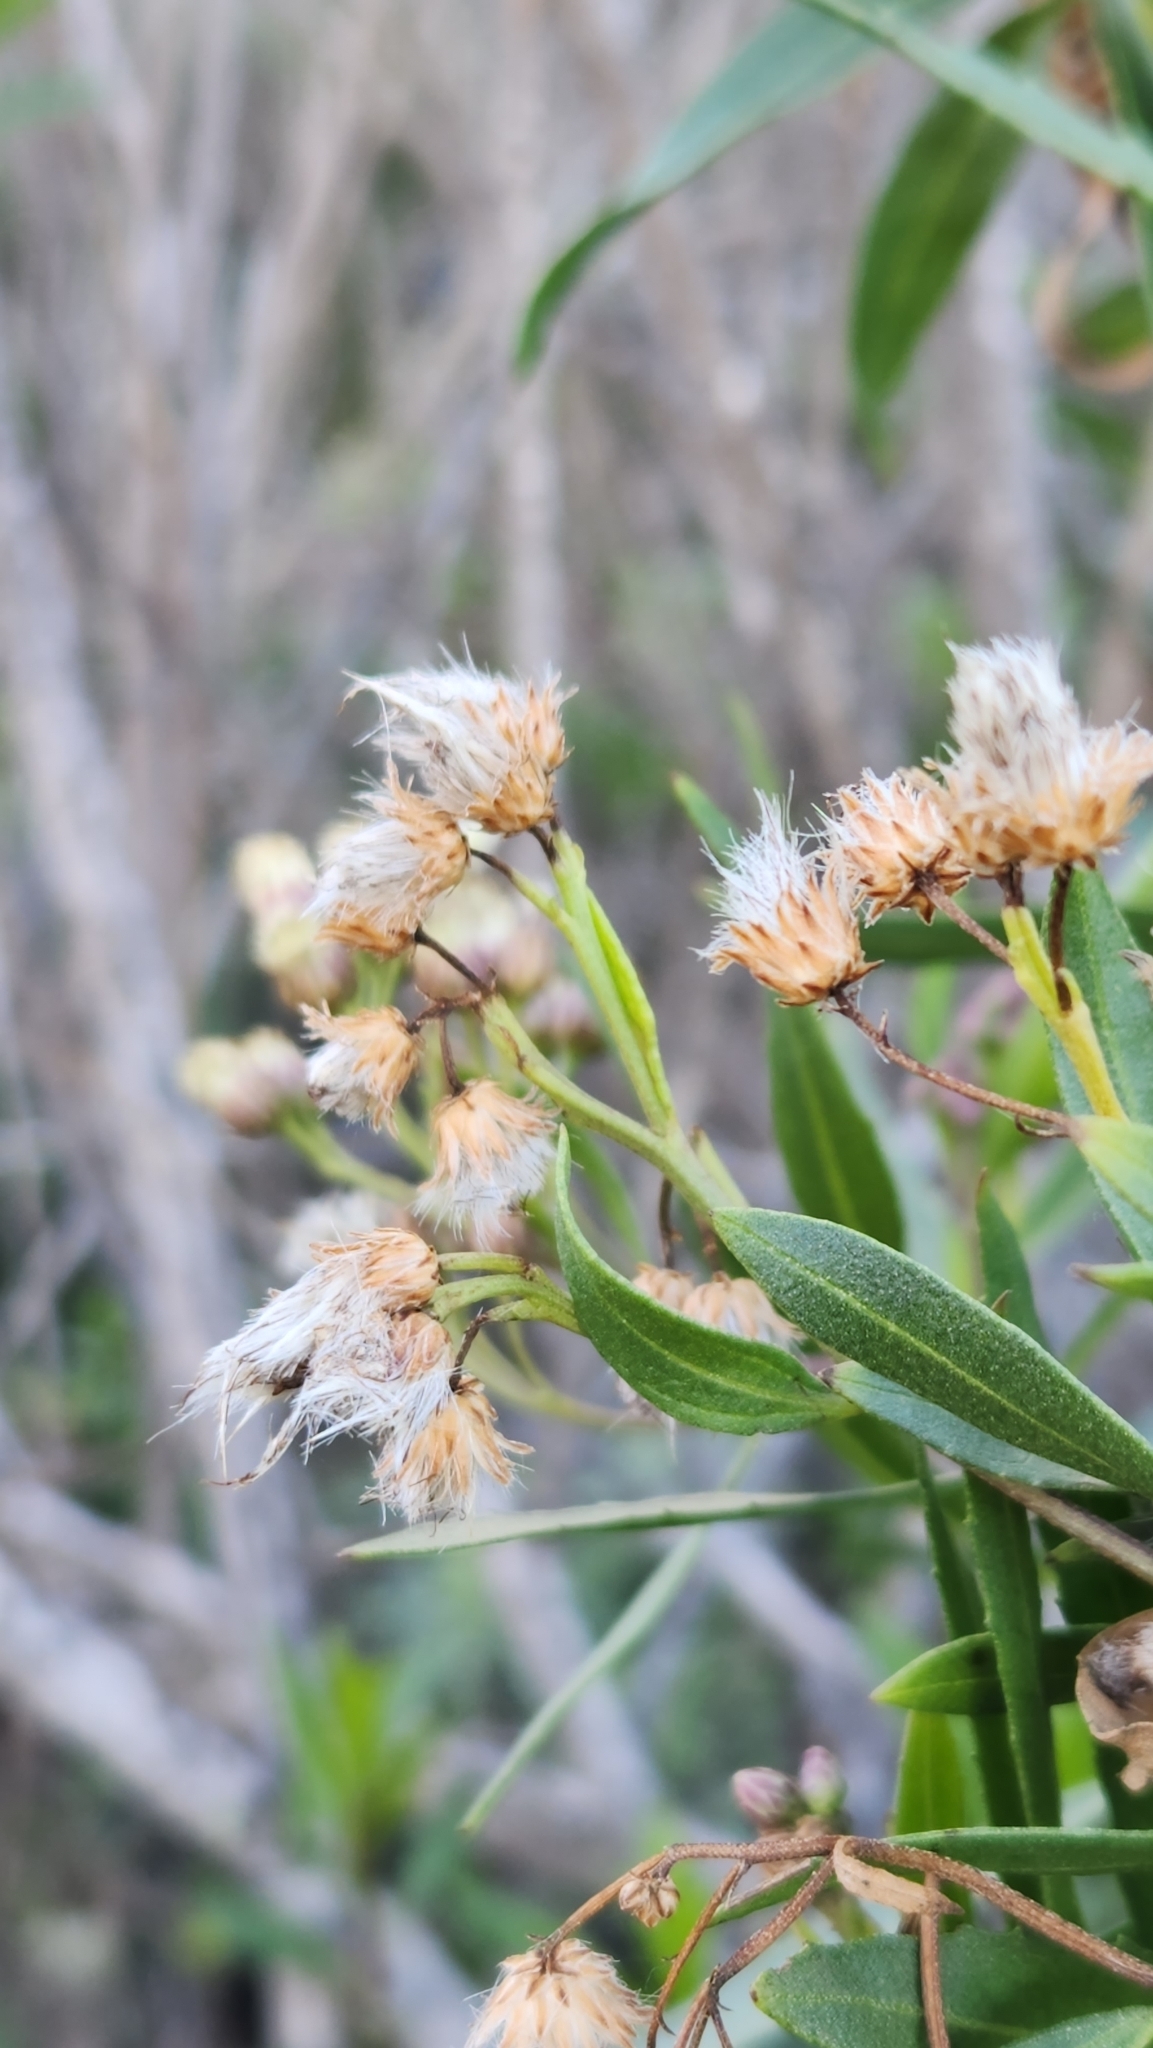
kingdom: Plantae
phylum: Tracheophyta
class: Magnoliopsida
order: Asterales
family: Asteraceae
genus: Baccharis
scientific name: Baccharis salicifolia
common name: Sticky baccharis
